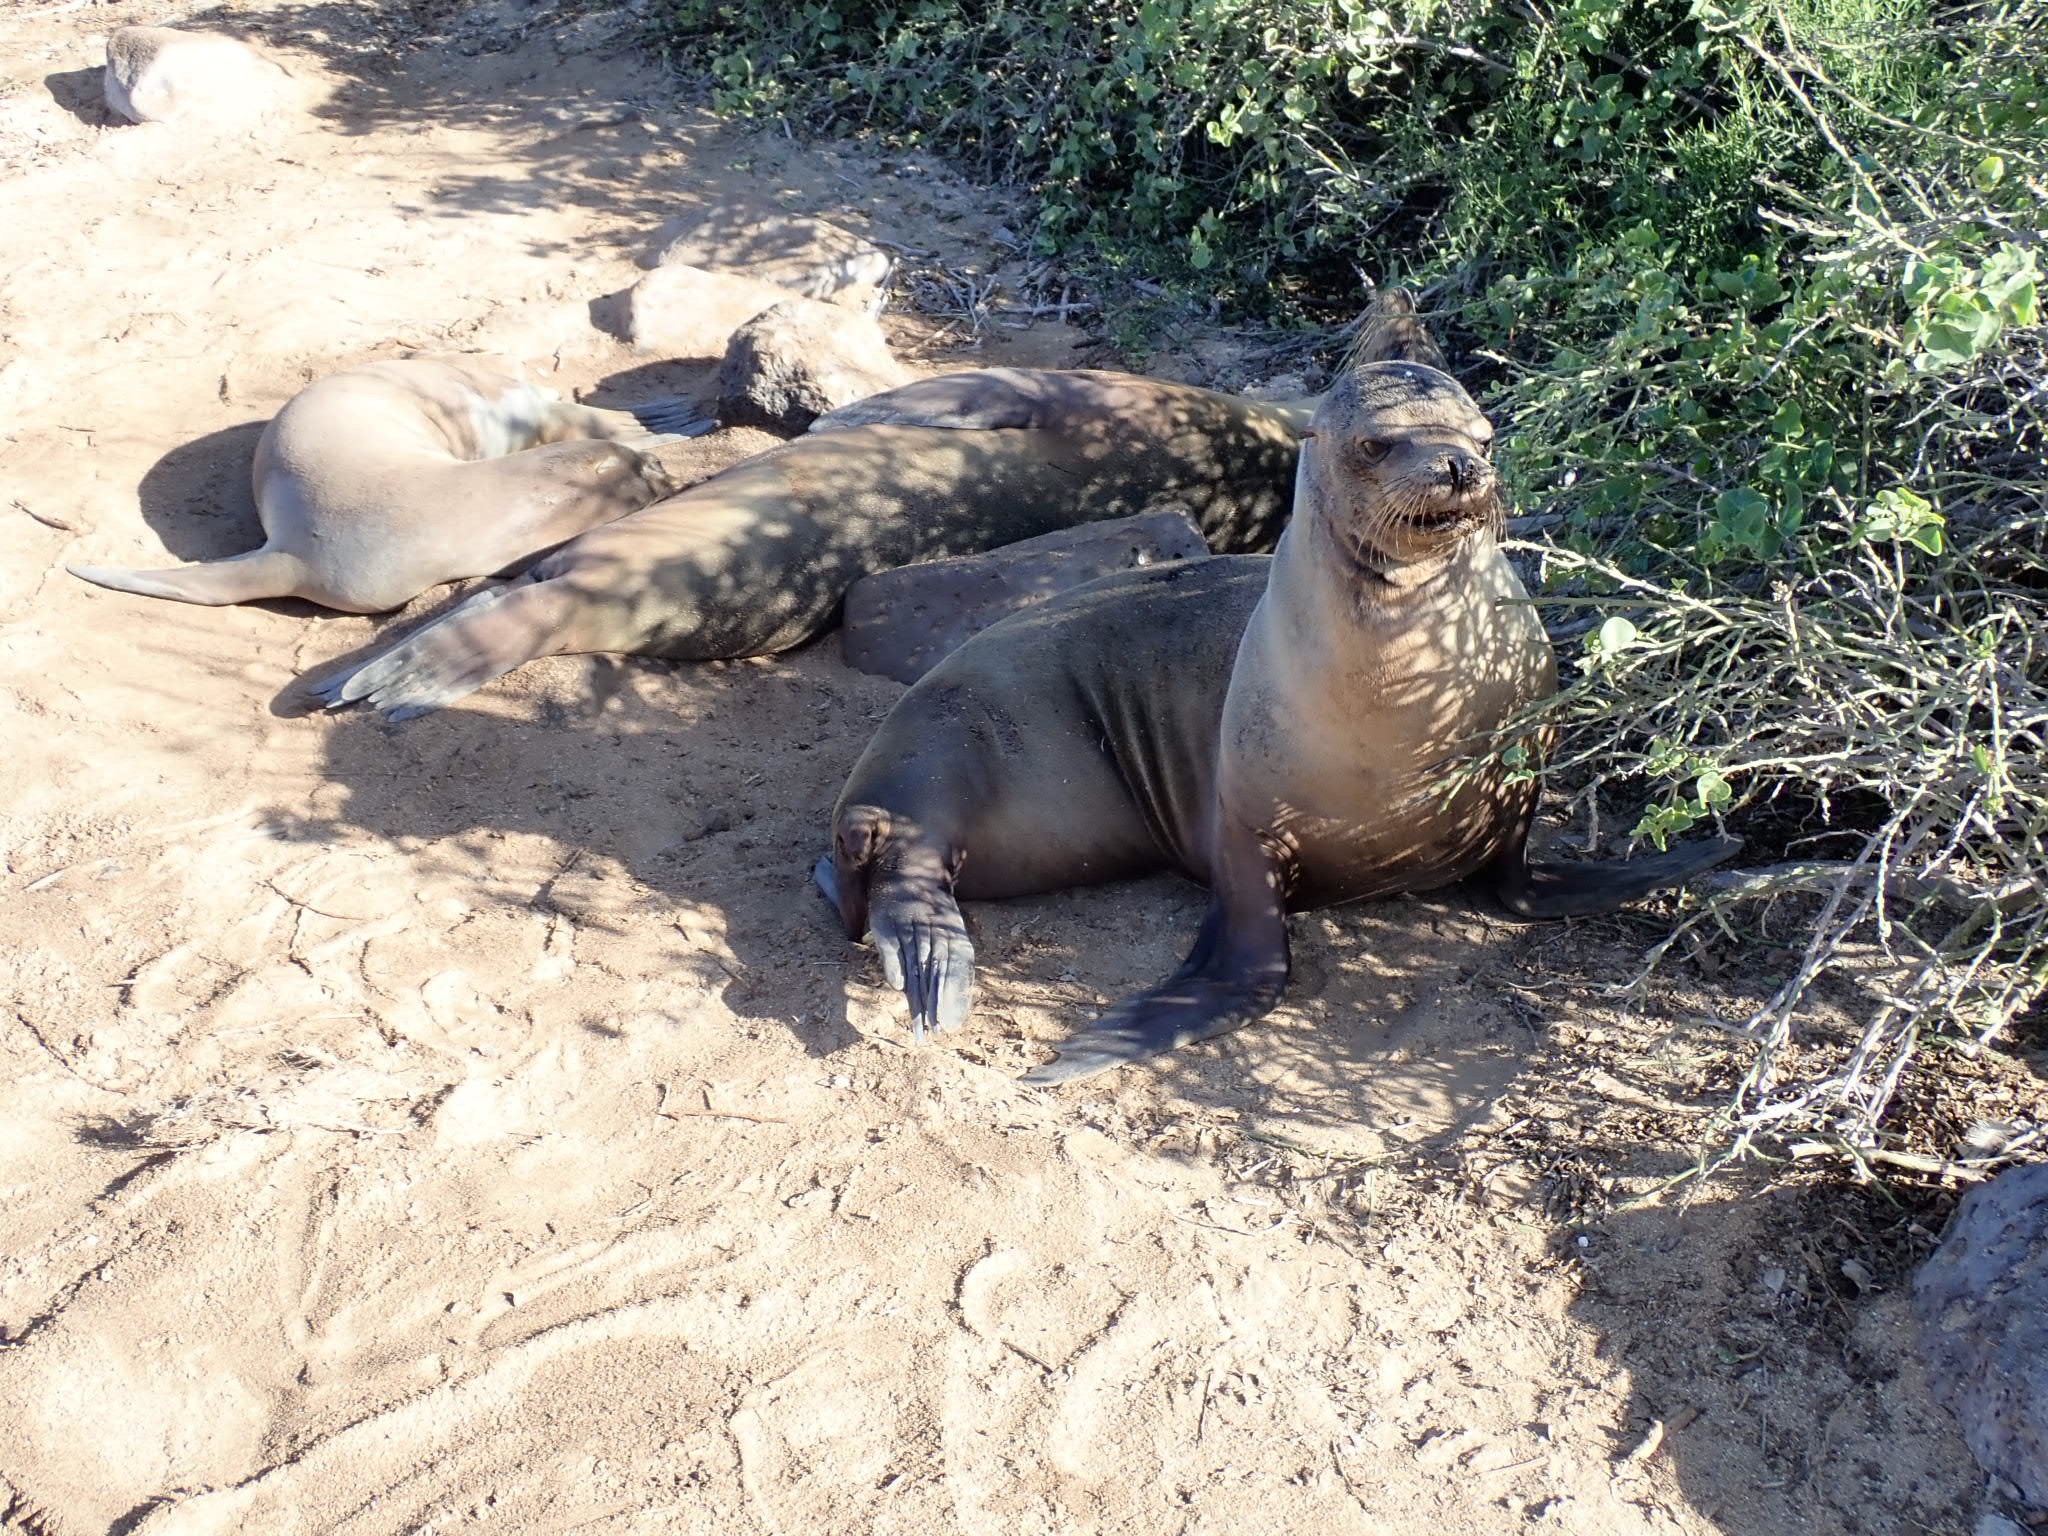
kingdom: Animalia
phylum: Chordata
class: Mammalia
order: Carnivora
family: Otariidae
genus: Zalophus
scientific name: Zalophus wollebaeki
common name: Galapagos sea lion
